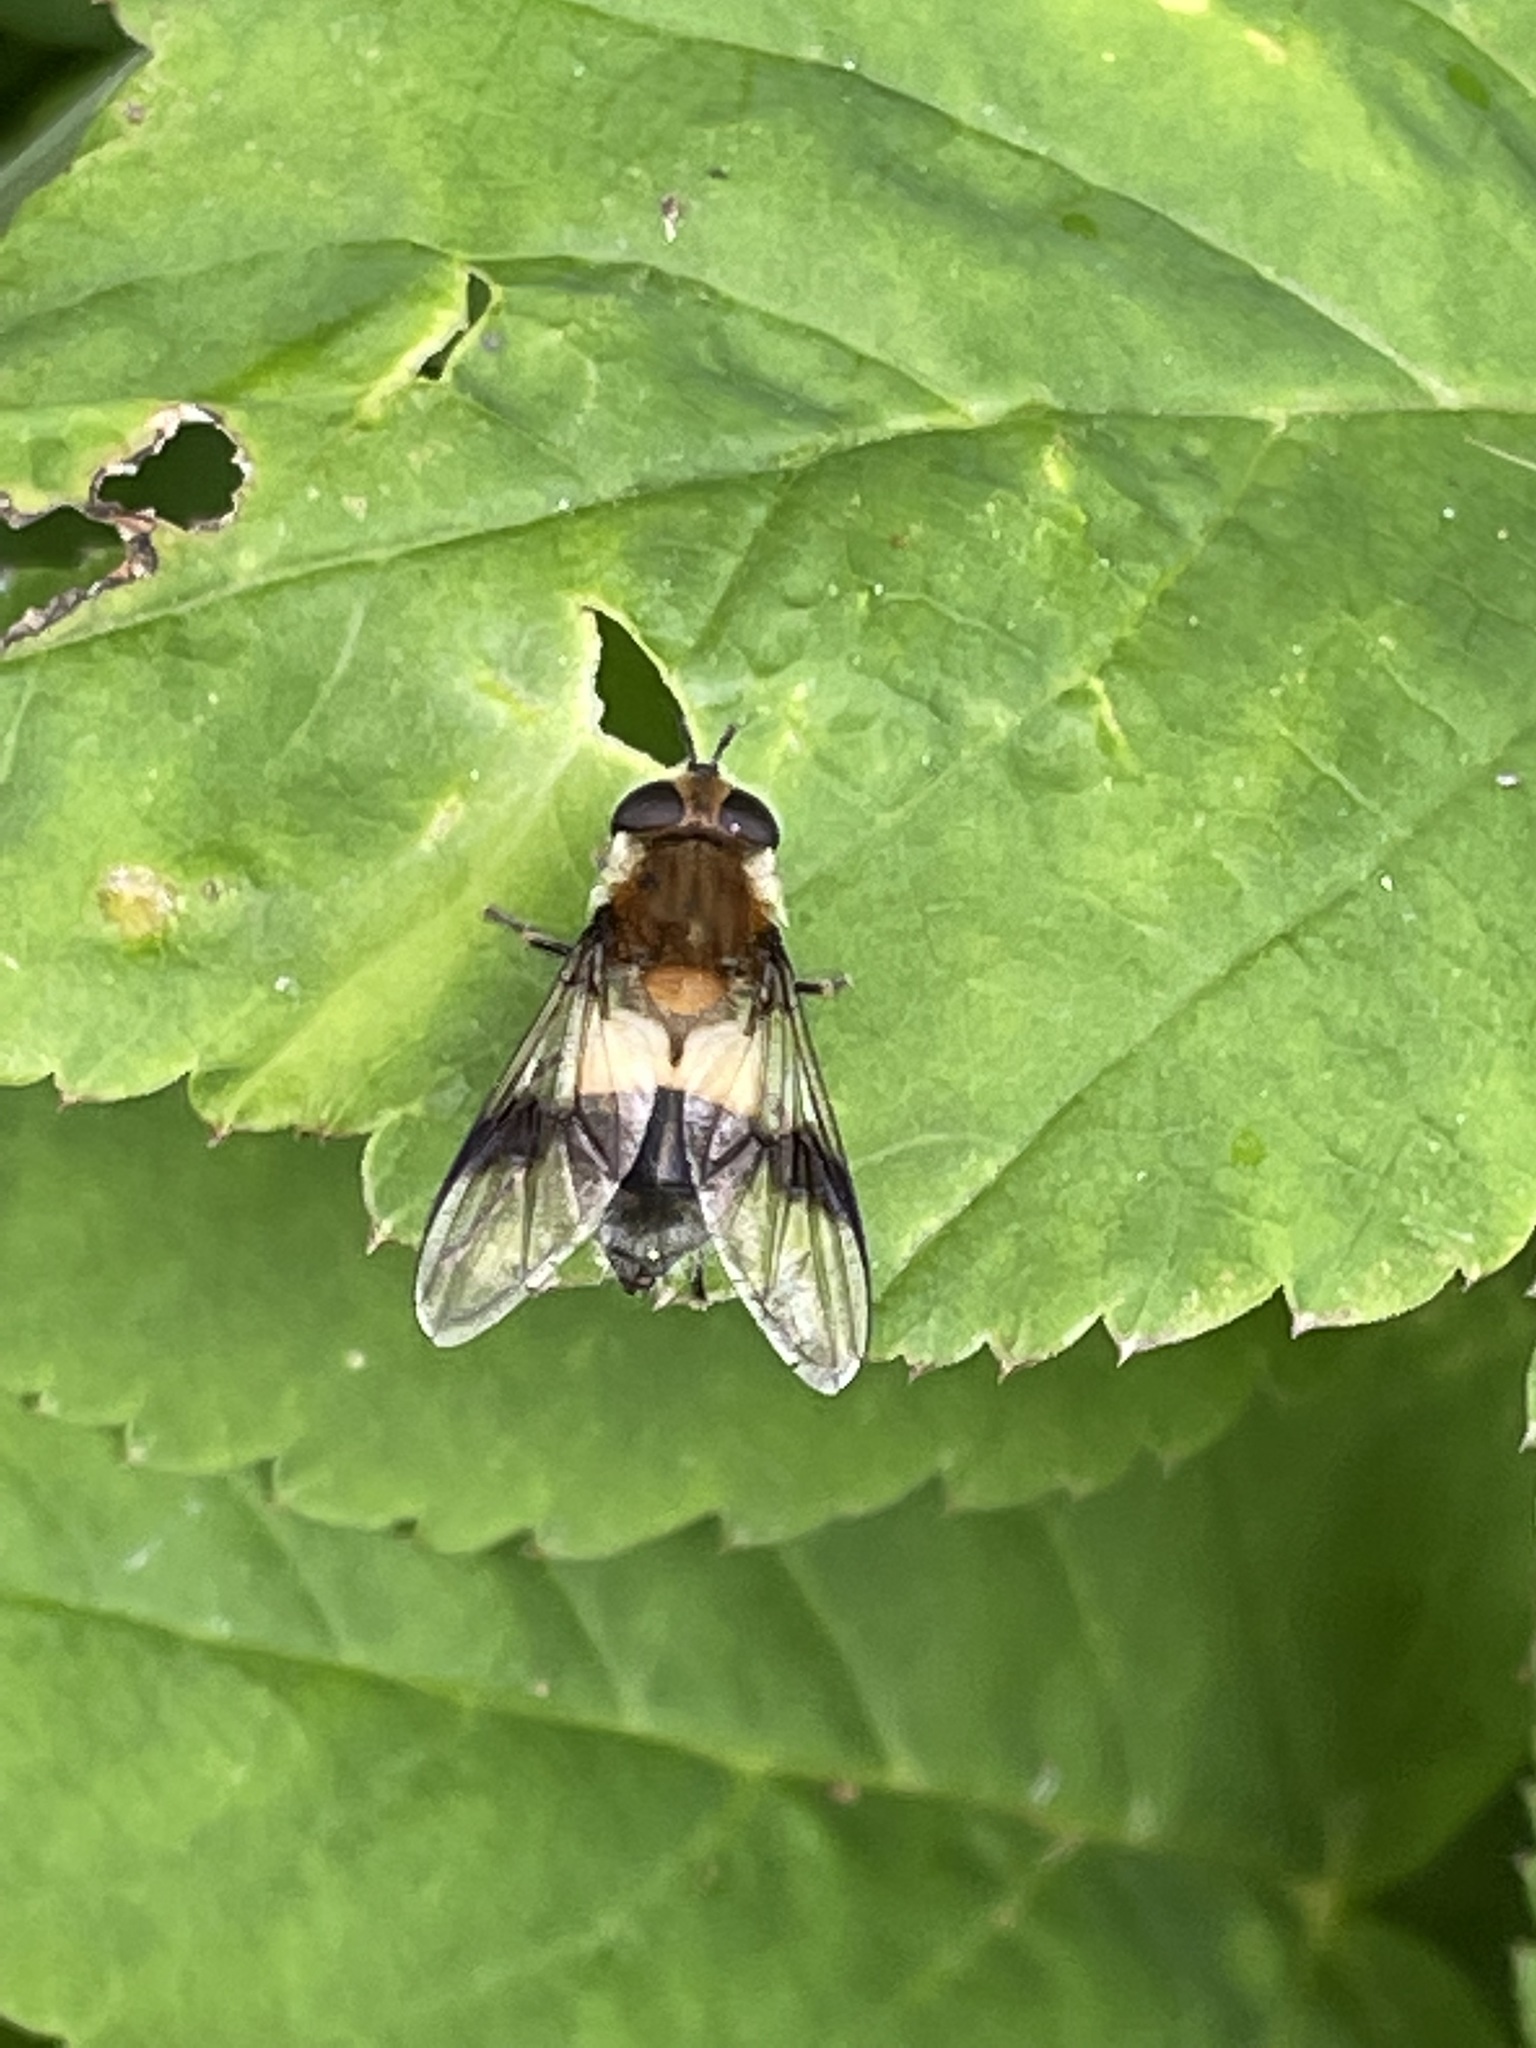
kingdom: Animalia
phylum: Arthropoda
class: Insecta
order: Diptera
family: Syrphidae
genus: Leucozona
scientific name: Leucozona lucorum
